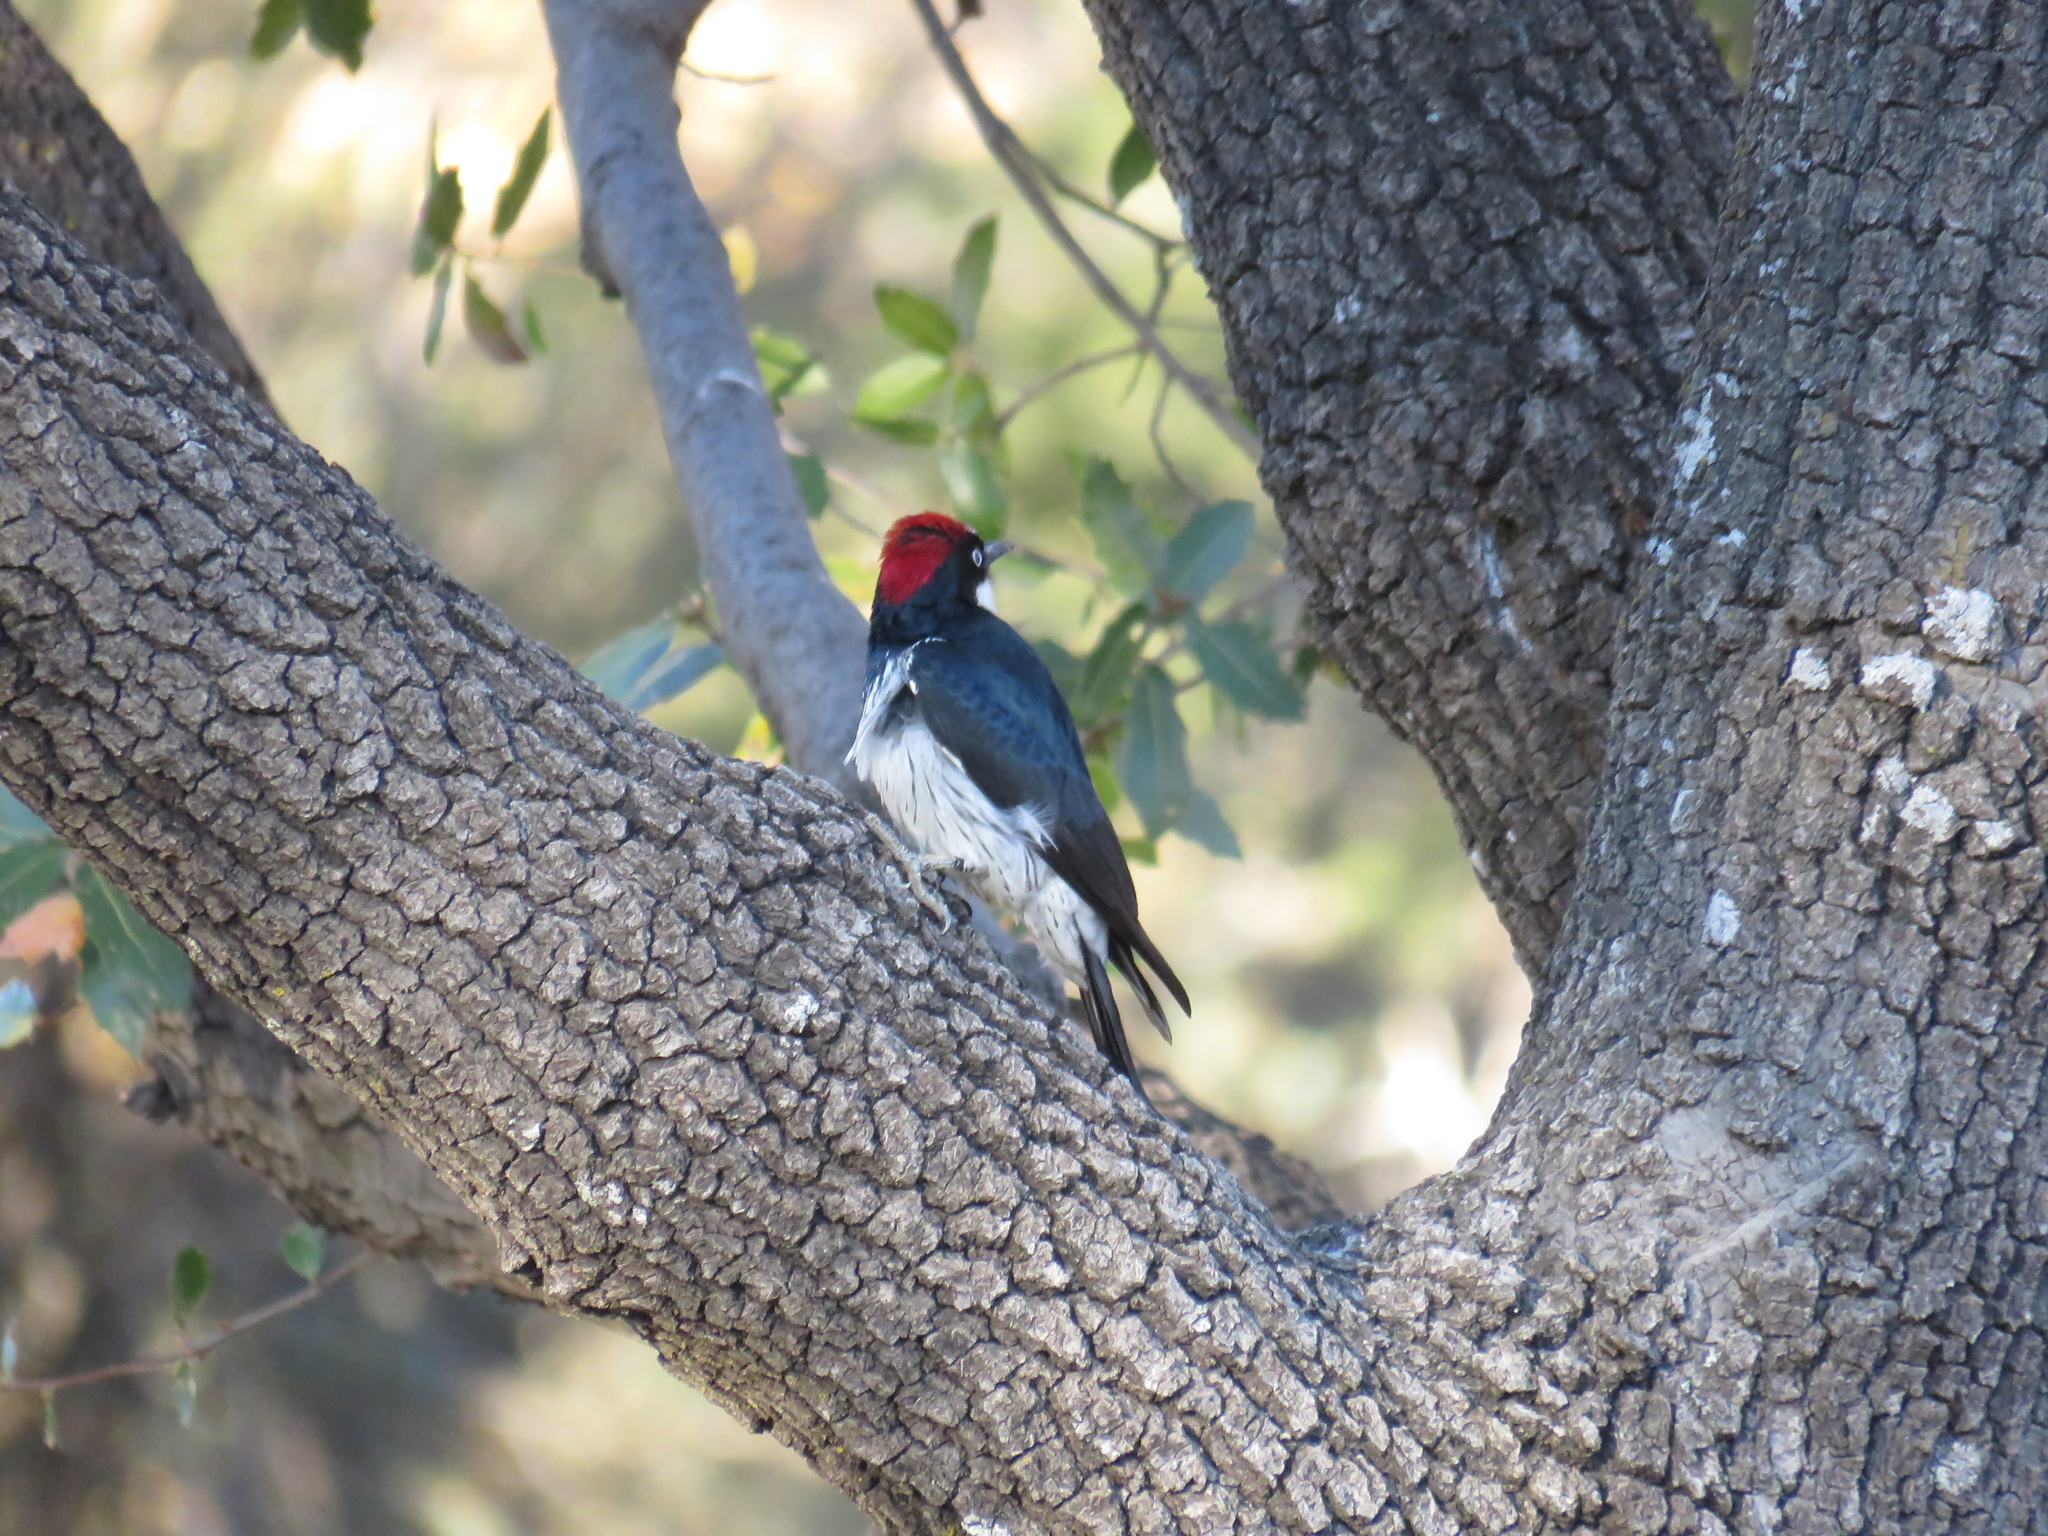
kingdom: Animalia
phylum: Chordata
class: Aves
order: Piciformes
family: Picidae
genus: Melanerpes
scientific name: Melanerpes formicivorus
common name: Acorn woodpecker
